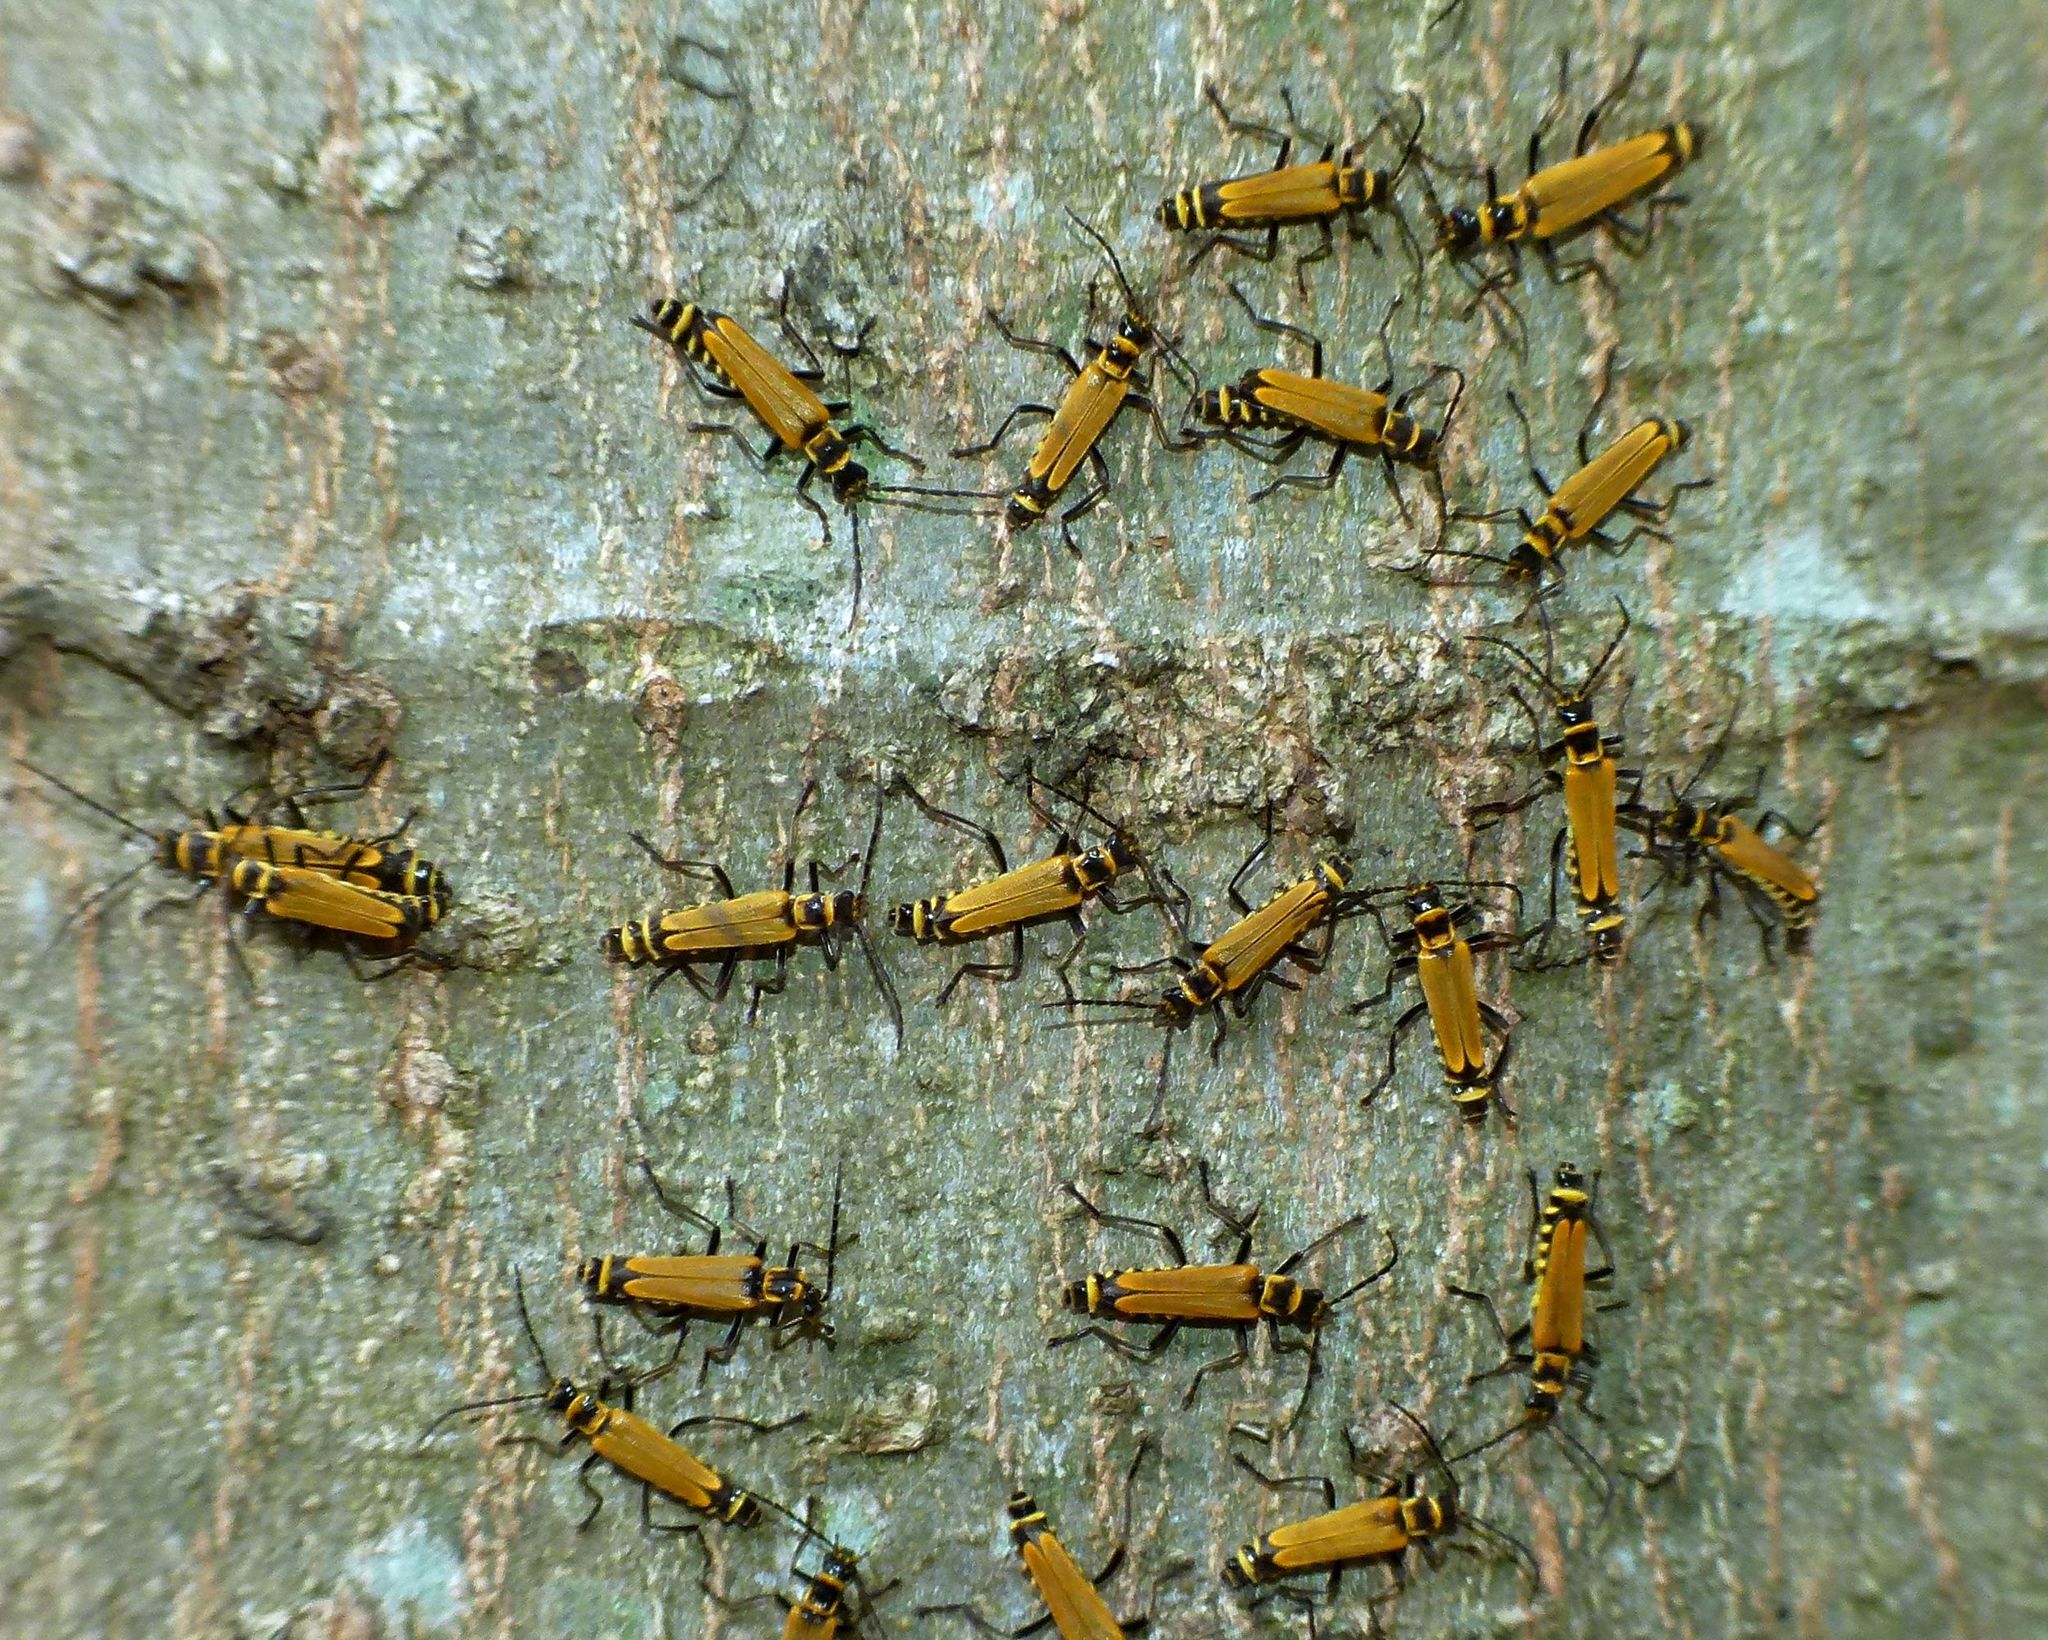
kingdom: Animalia
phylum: Arthropoda
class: Insecta
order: Coleoptera
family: Cantharidae
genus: Chauliognathus
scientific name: Chauliognathus
